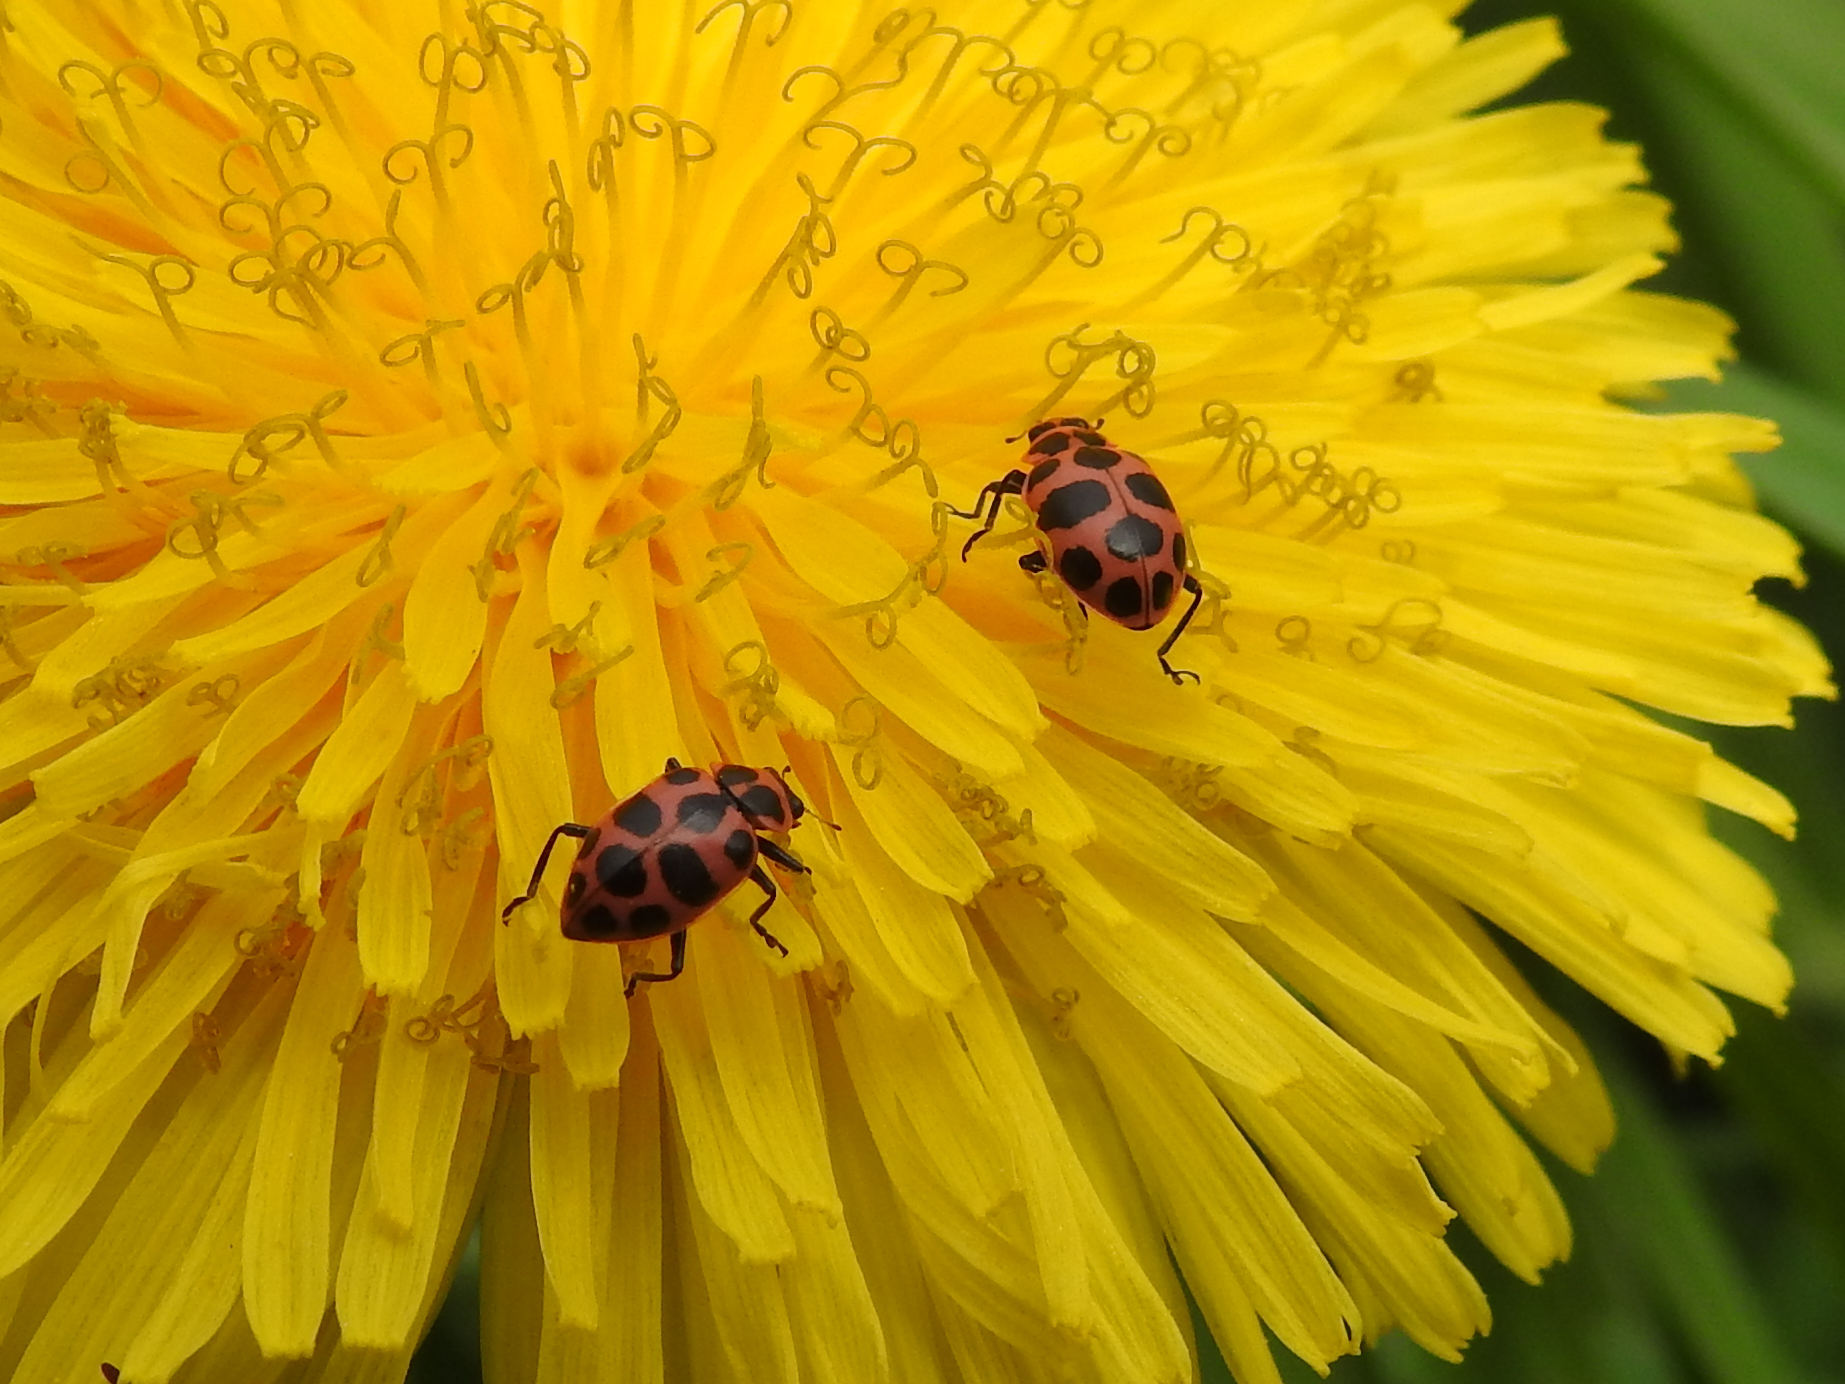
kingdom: Animalia
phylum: Arthropoda
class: Insecta
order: Coleoptera
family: Coccinellidae
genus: Coleomegilla
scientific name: Coleomegilla maculata
